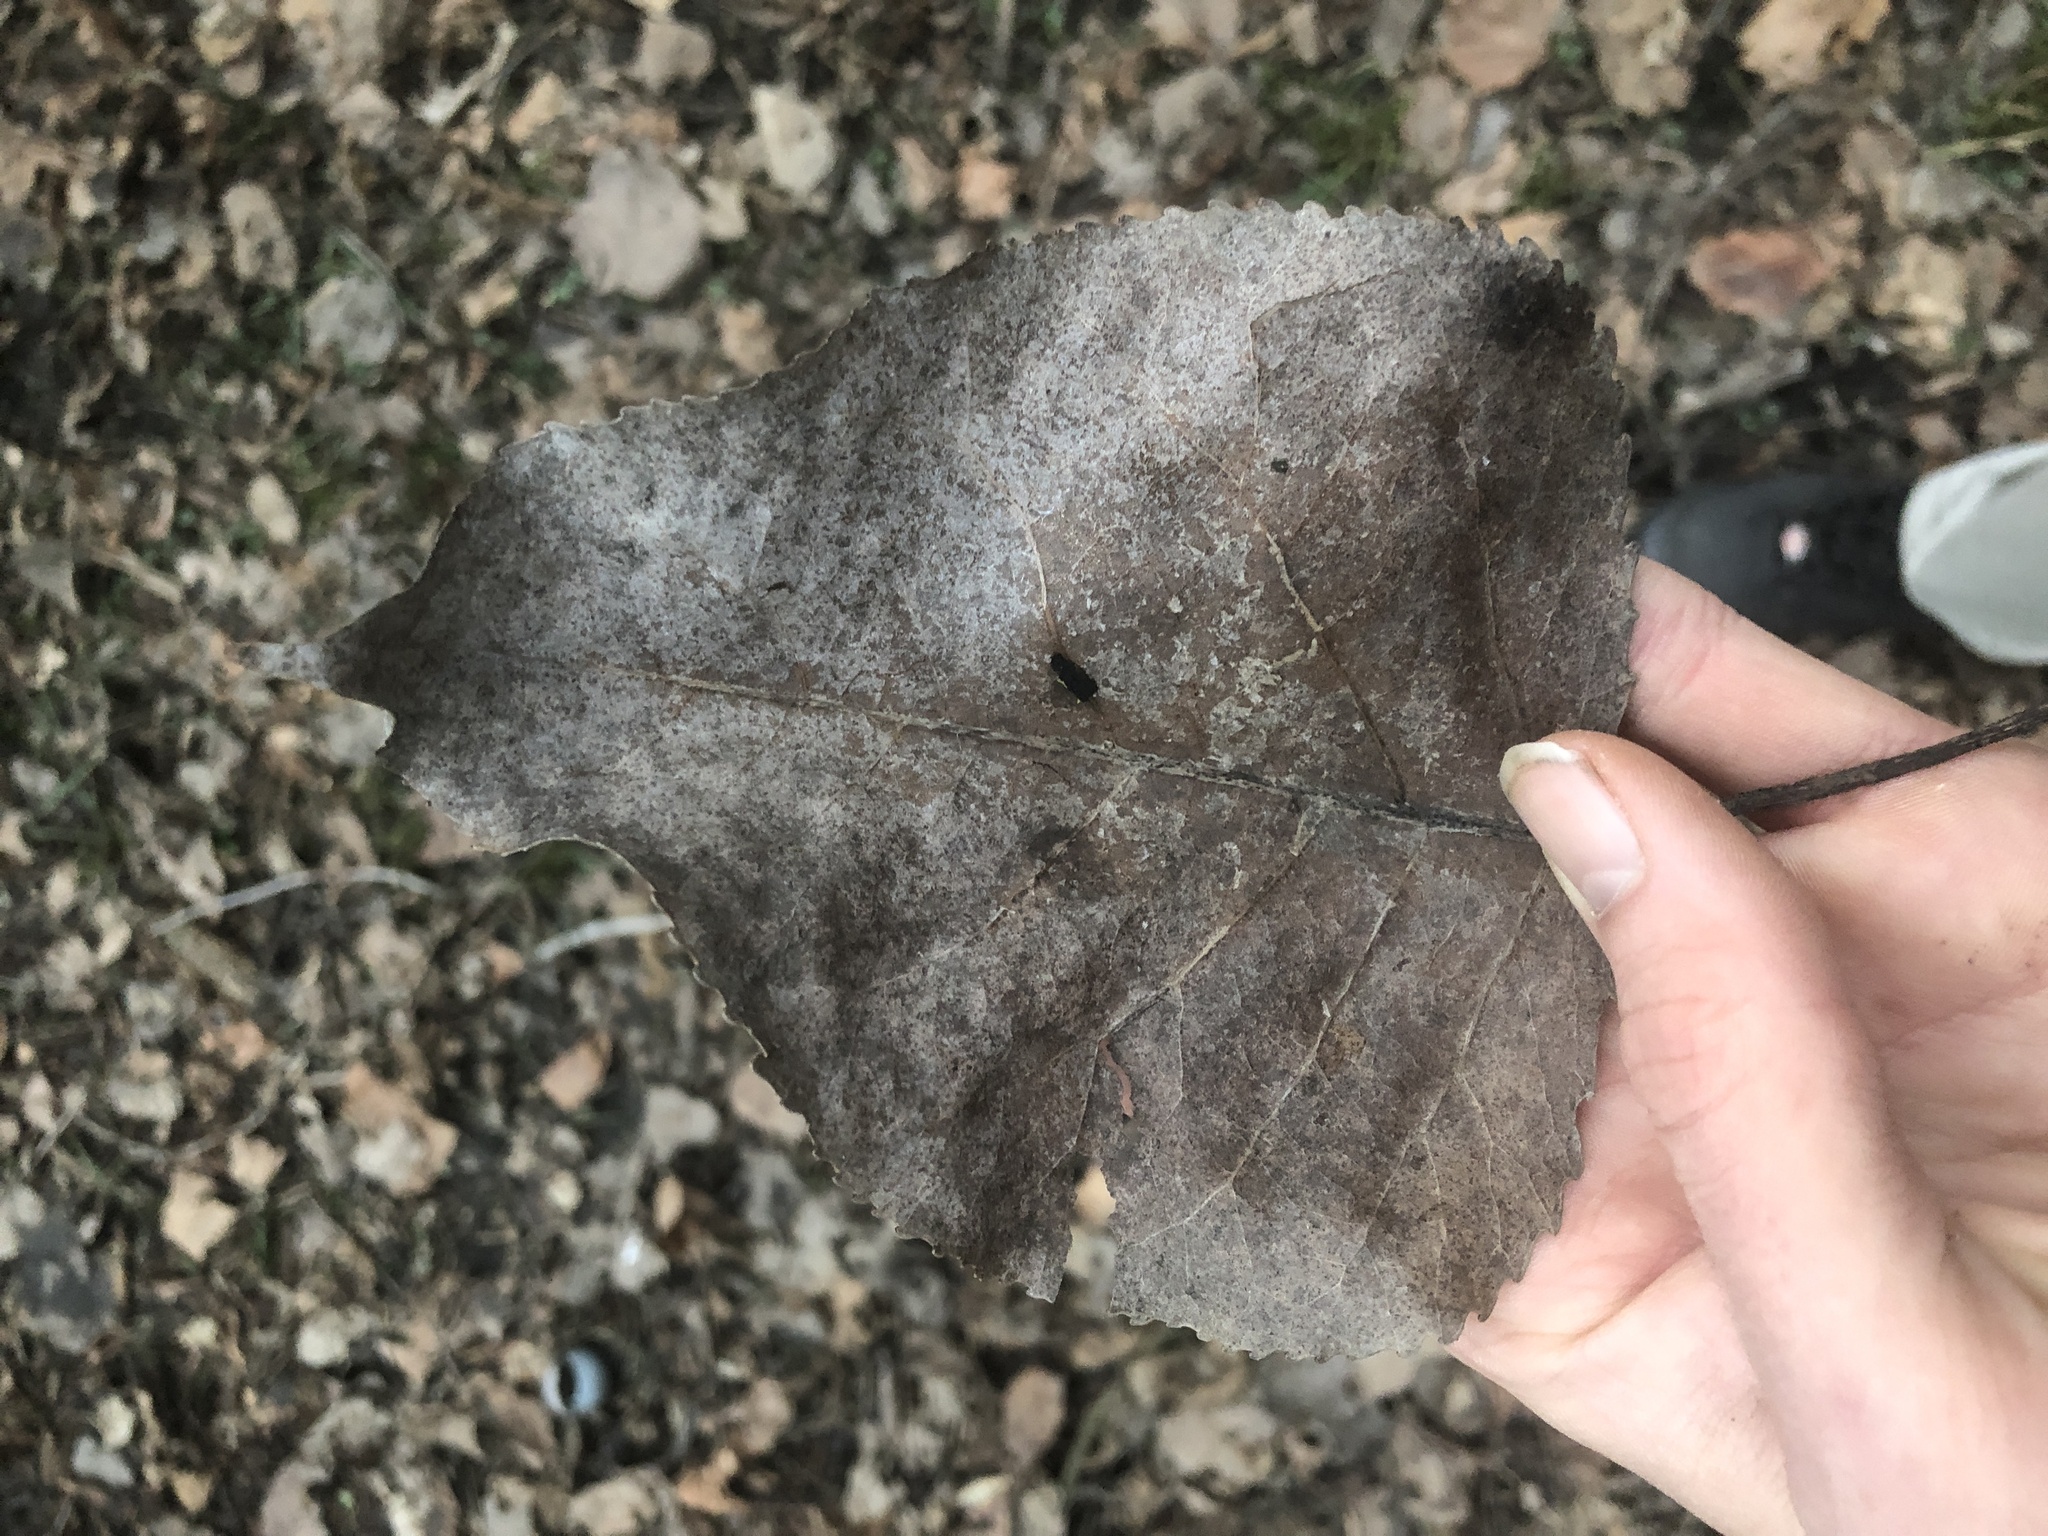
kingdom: Plantae
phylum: Tracheophyta
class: Magnoliopsida
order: Malpighiales
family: Salicaceae
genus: Populus
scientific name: Populus deltoides
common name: Eastern cottonwood
